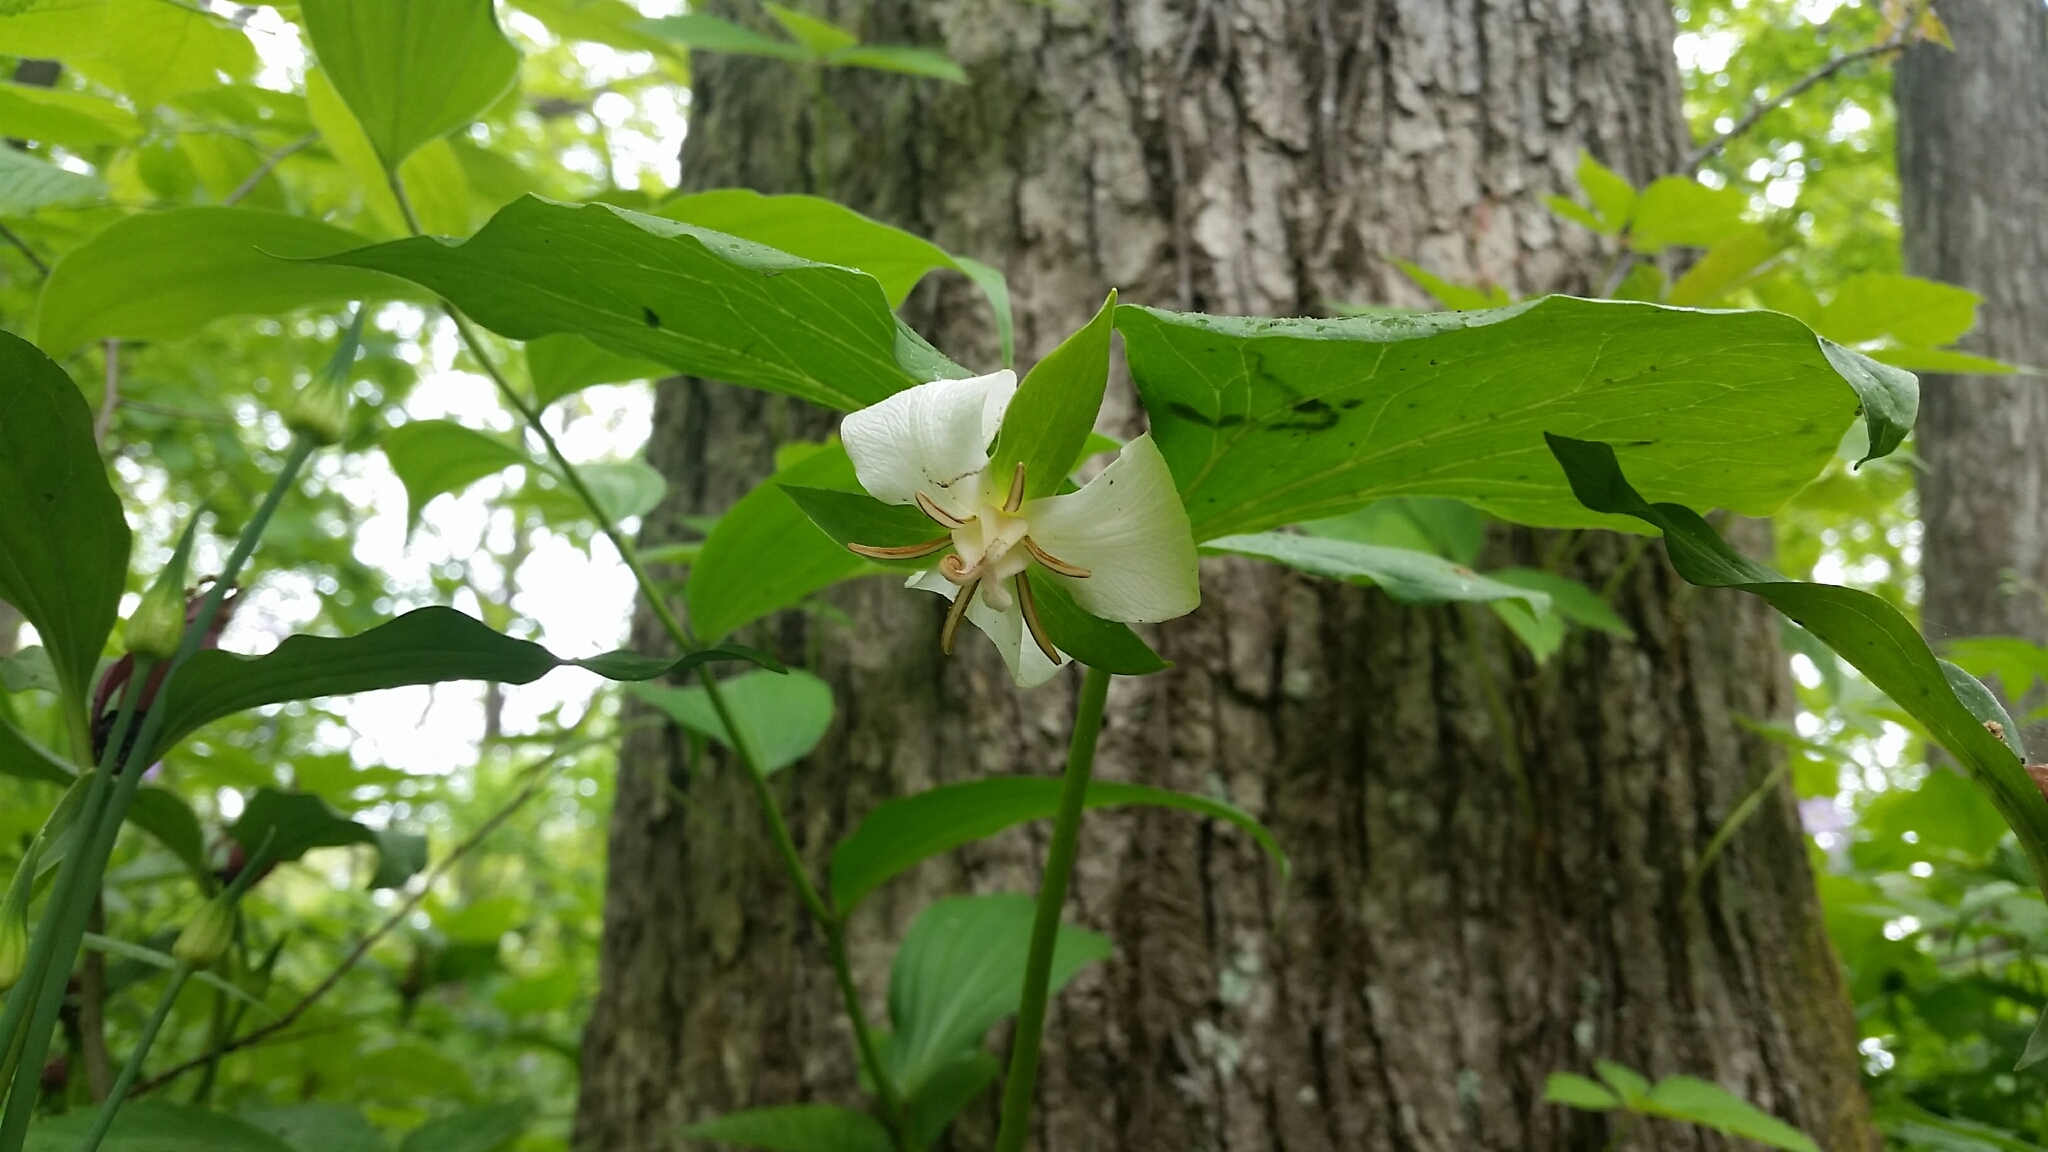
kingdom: Plantae
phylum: Tracheophyta
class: Liliopsida
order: Liliales
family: Melanthiaceae
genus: Trillium
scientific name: Trillium flexipes
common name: Drooping trillium
